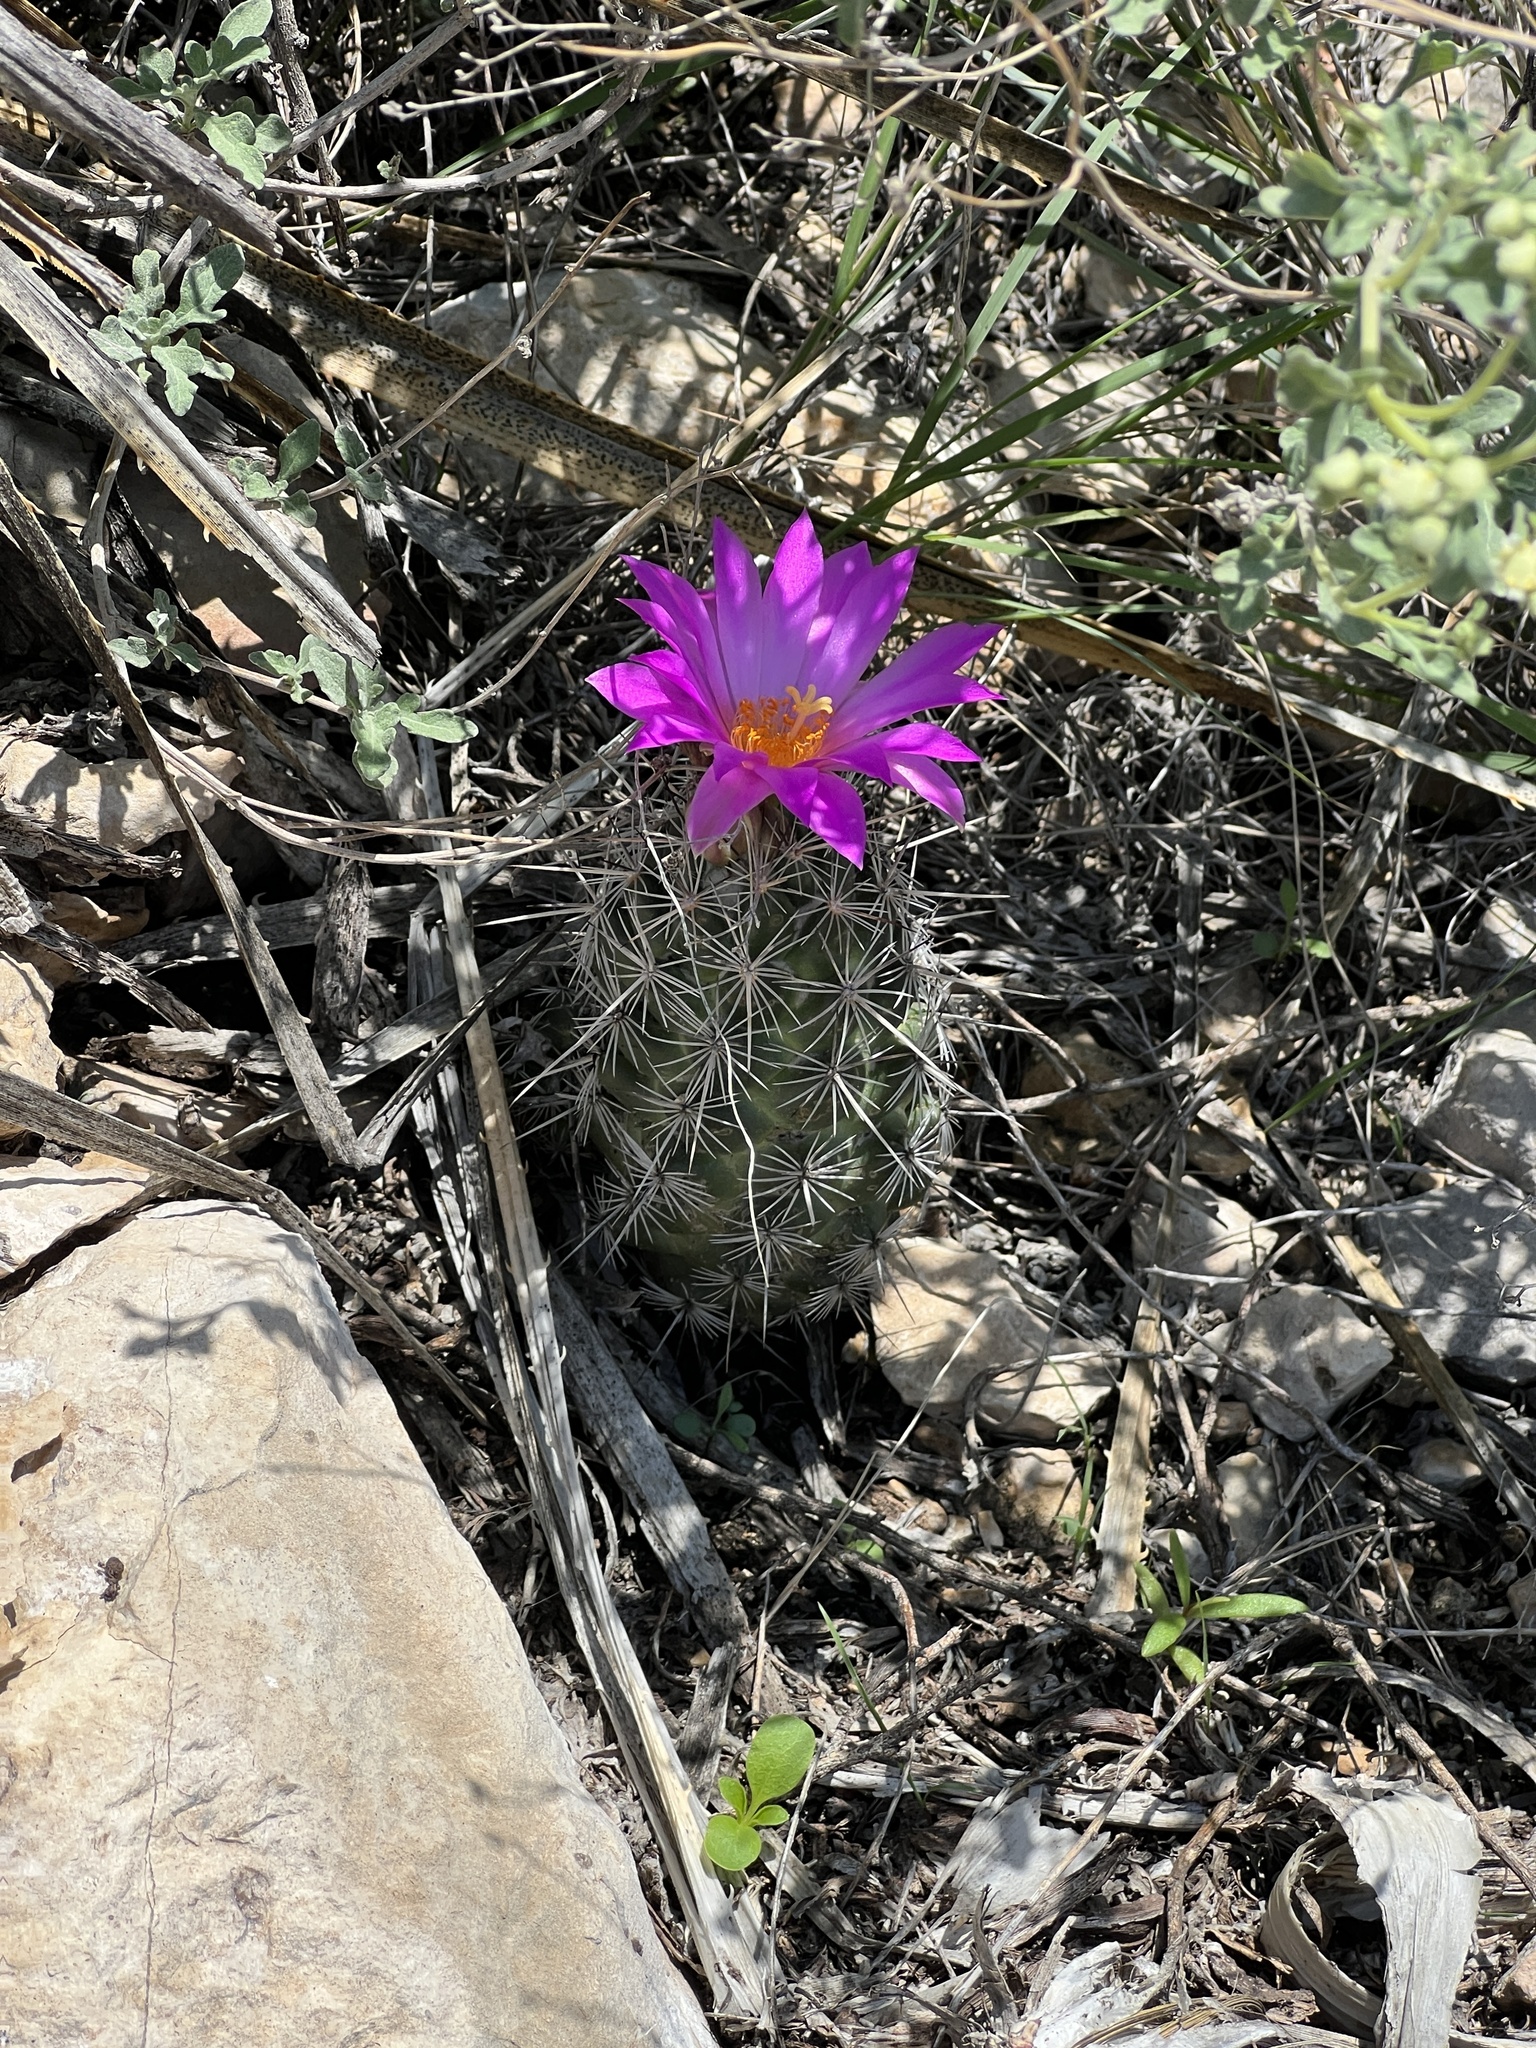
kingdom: Plantae
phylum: Tracheophyta
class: Magnoliopsida
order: Caryophyllales
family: Cactaceae
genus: Cochemiea
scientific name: Cochemiea conoidea
